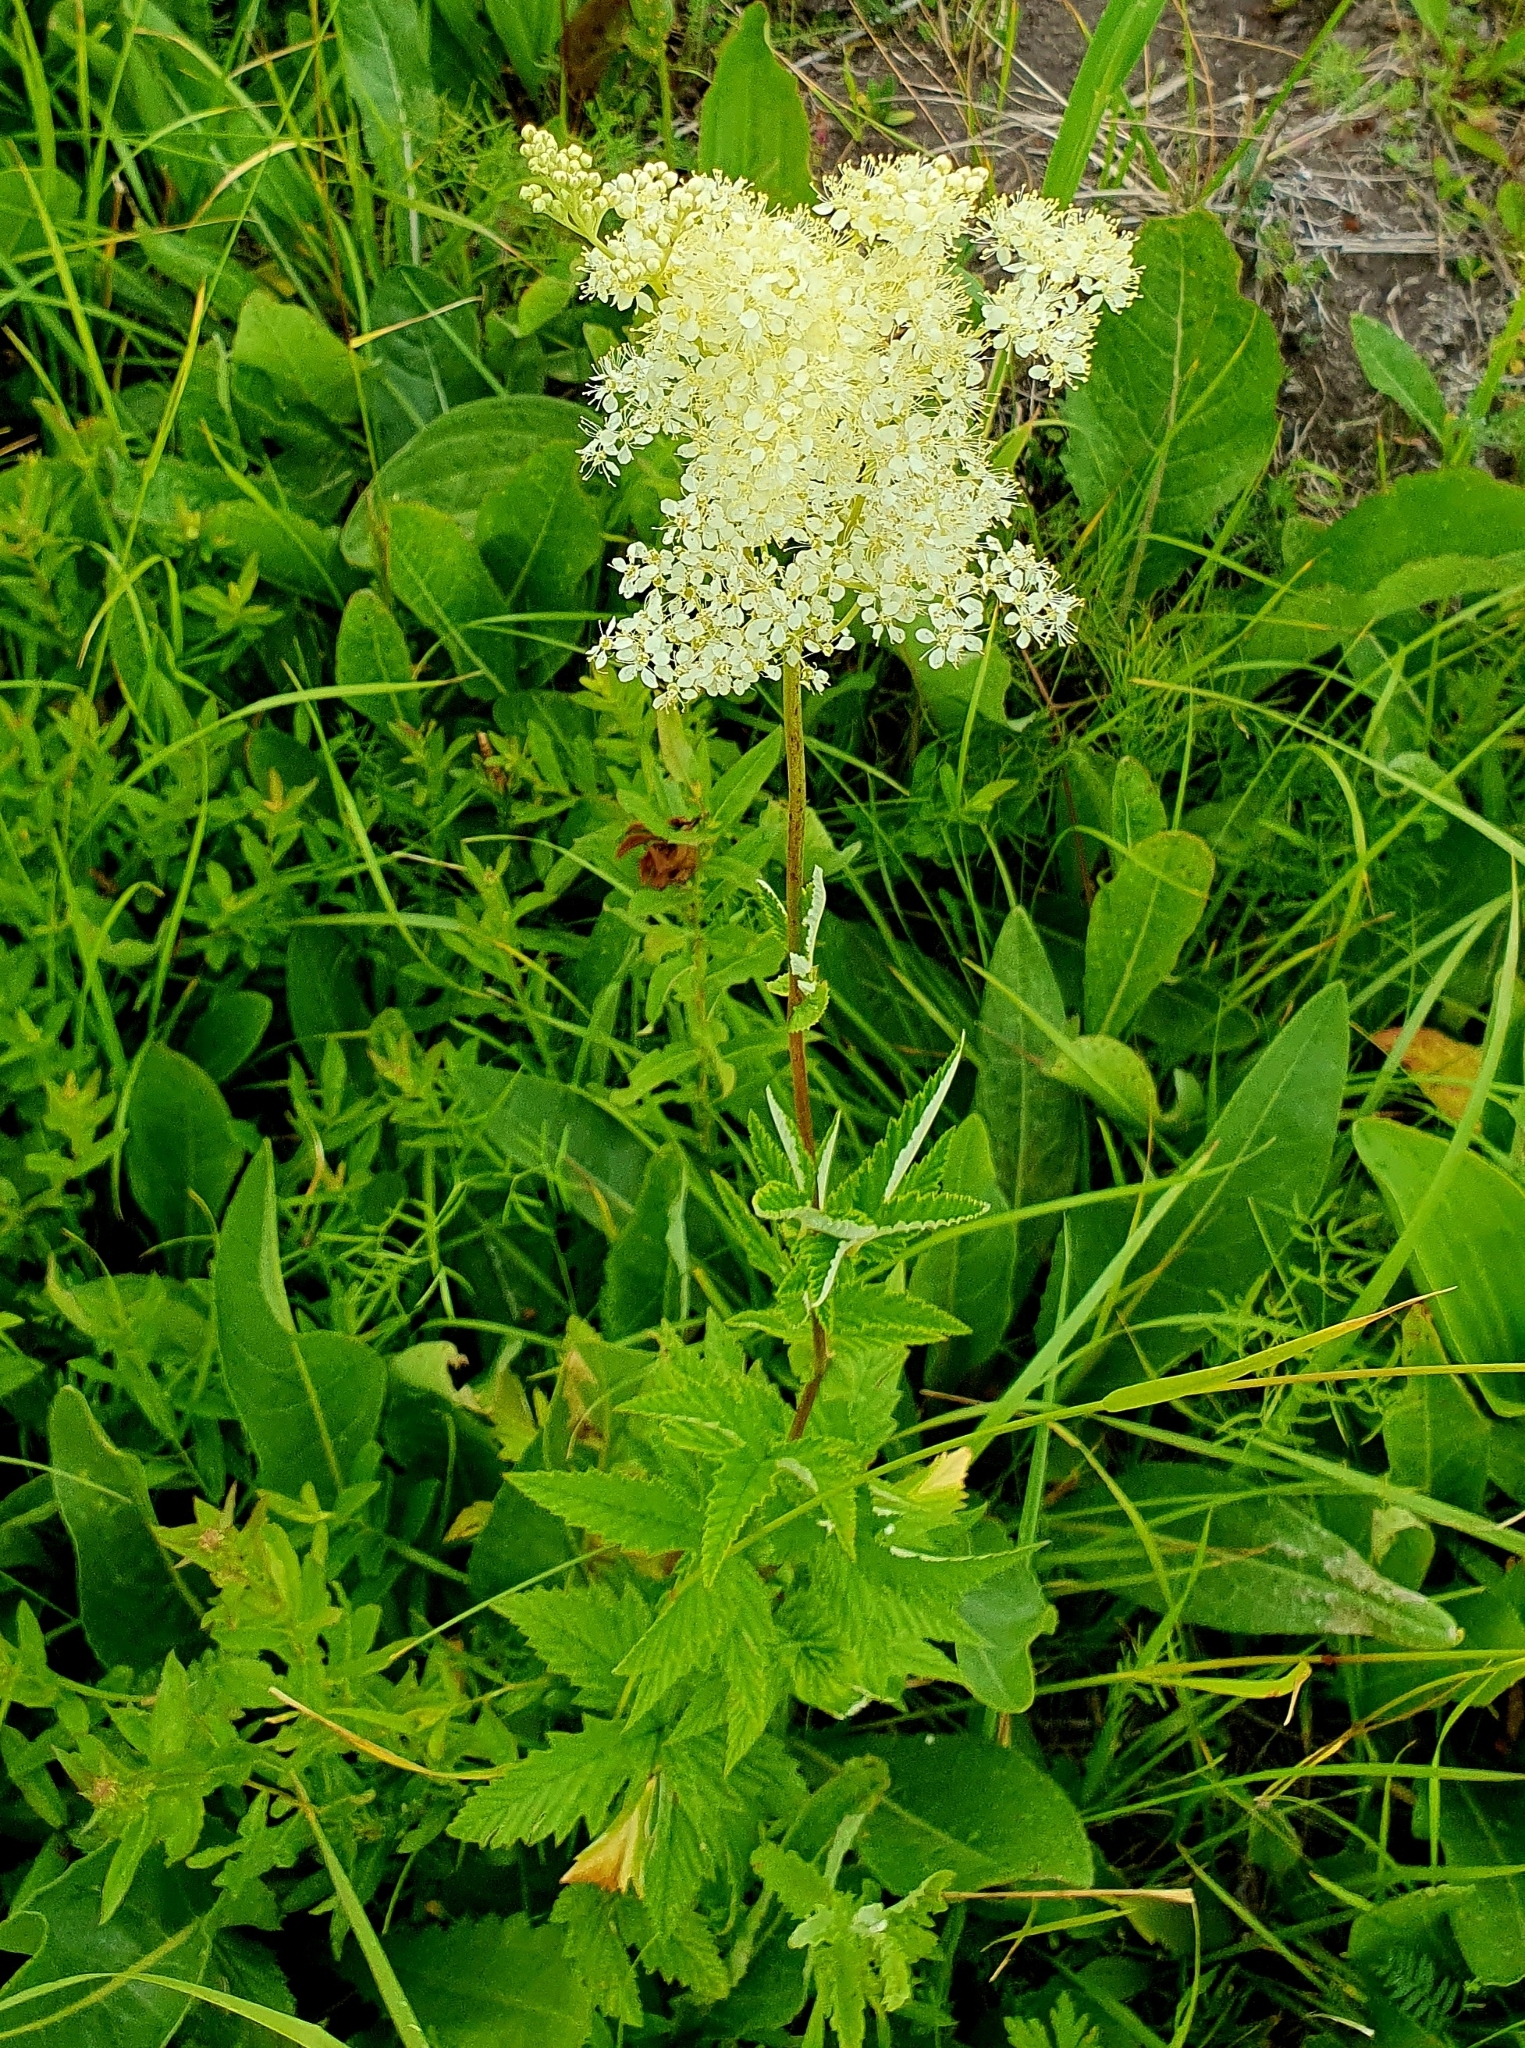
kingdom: Plantae
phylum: Tracheophyta
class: Magnoliopsida
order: Rosales
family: Rosaceae
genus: Filipendula
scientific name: Filipendula ulmaria
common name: Meadowsweet
